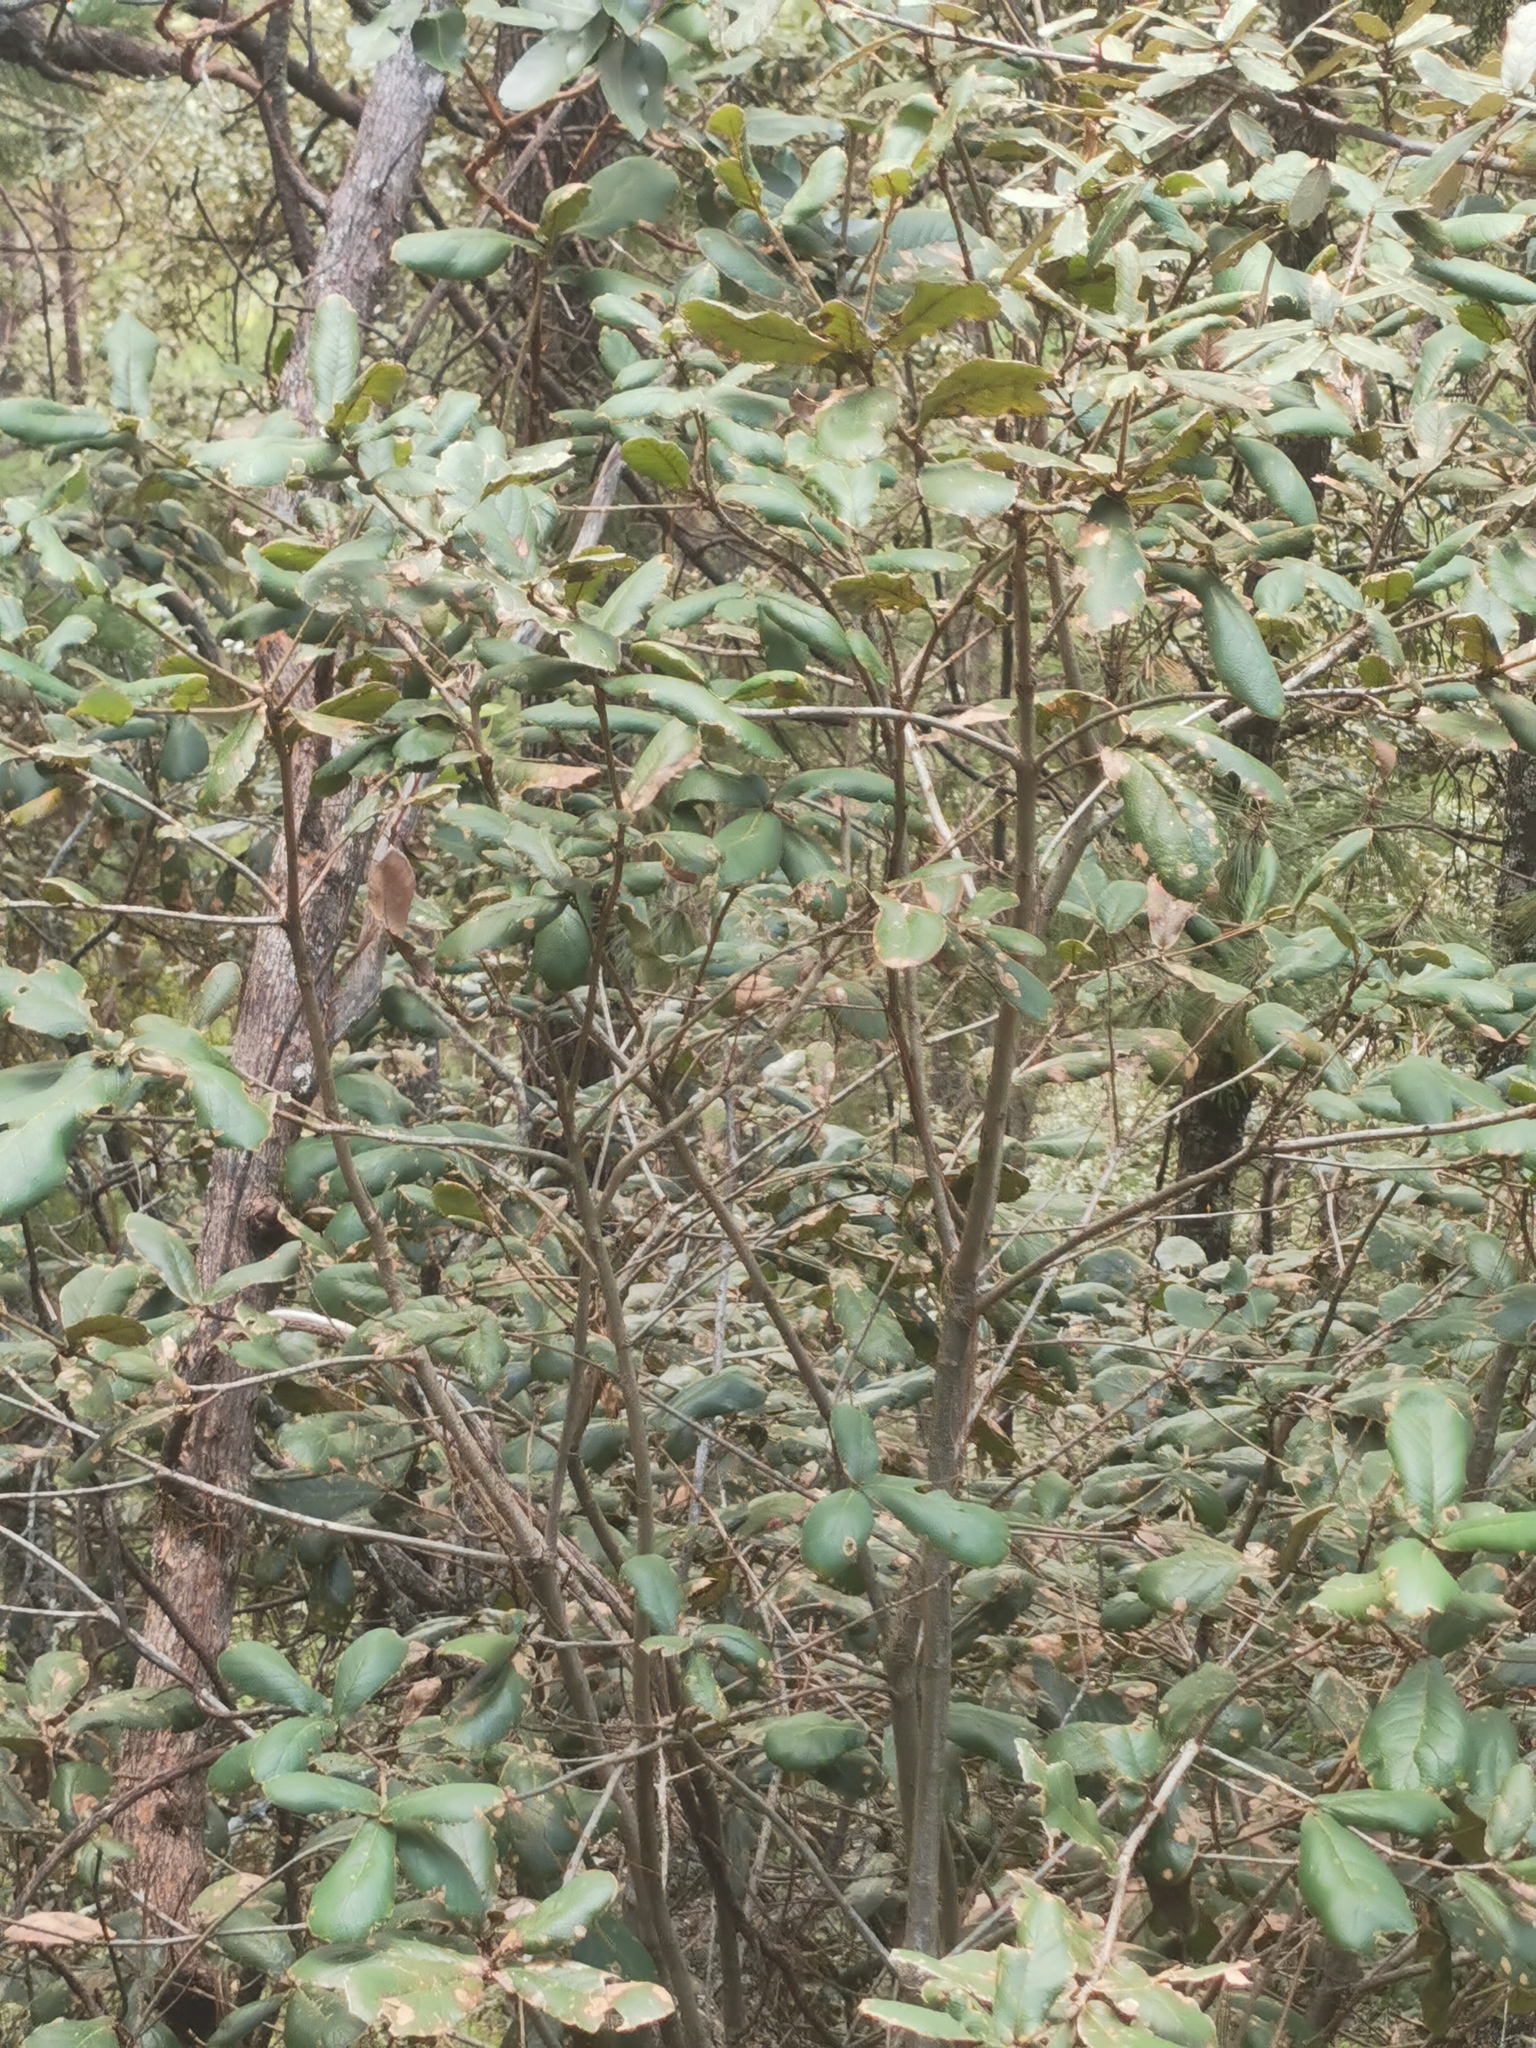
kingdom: Plantae
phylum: Tracheophyta
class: Magnoliopsida
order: Fagales
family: Fagaceae
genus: Quercus
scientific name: Quercus rugosa
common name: Netleaf oak
